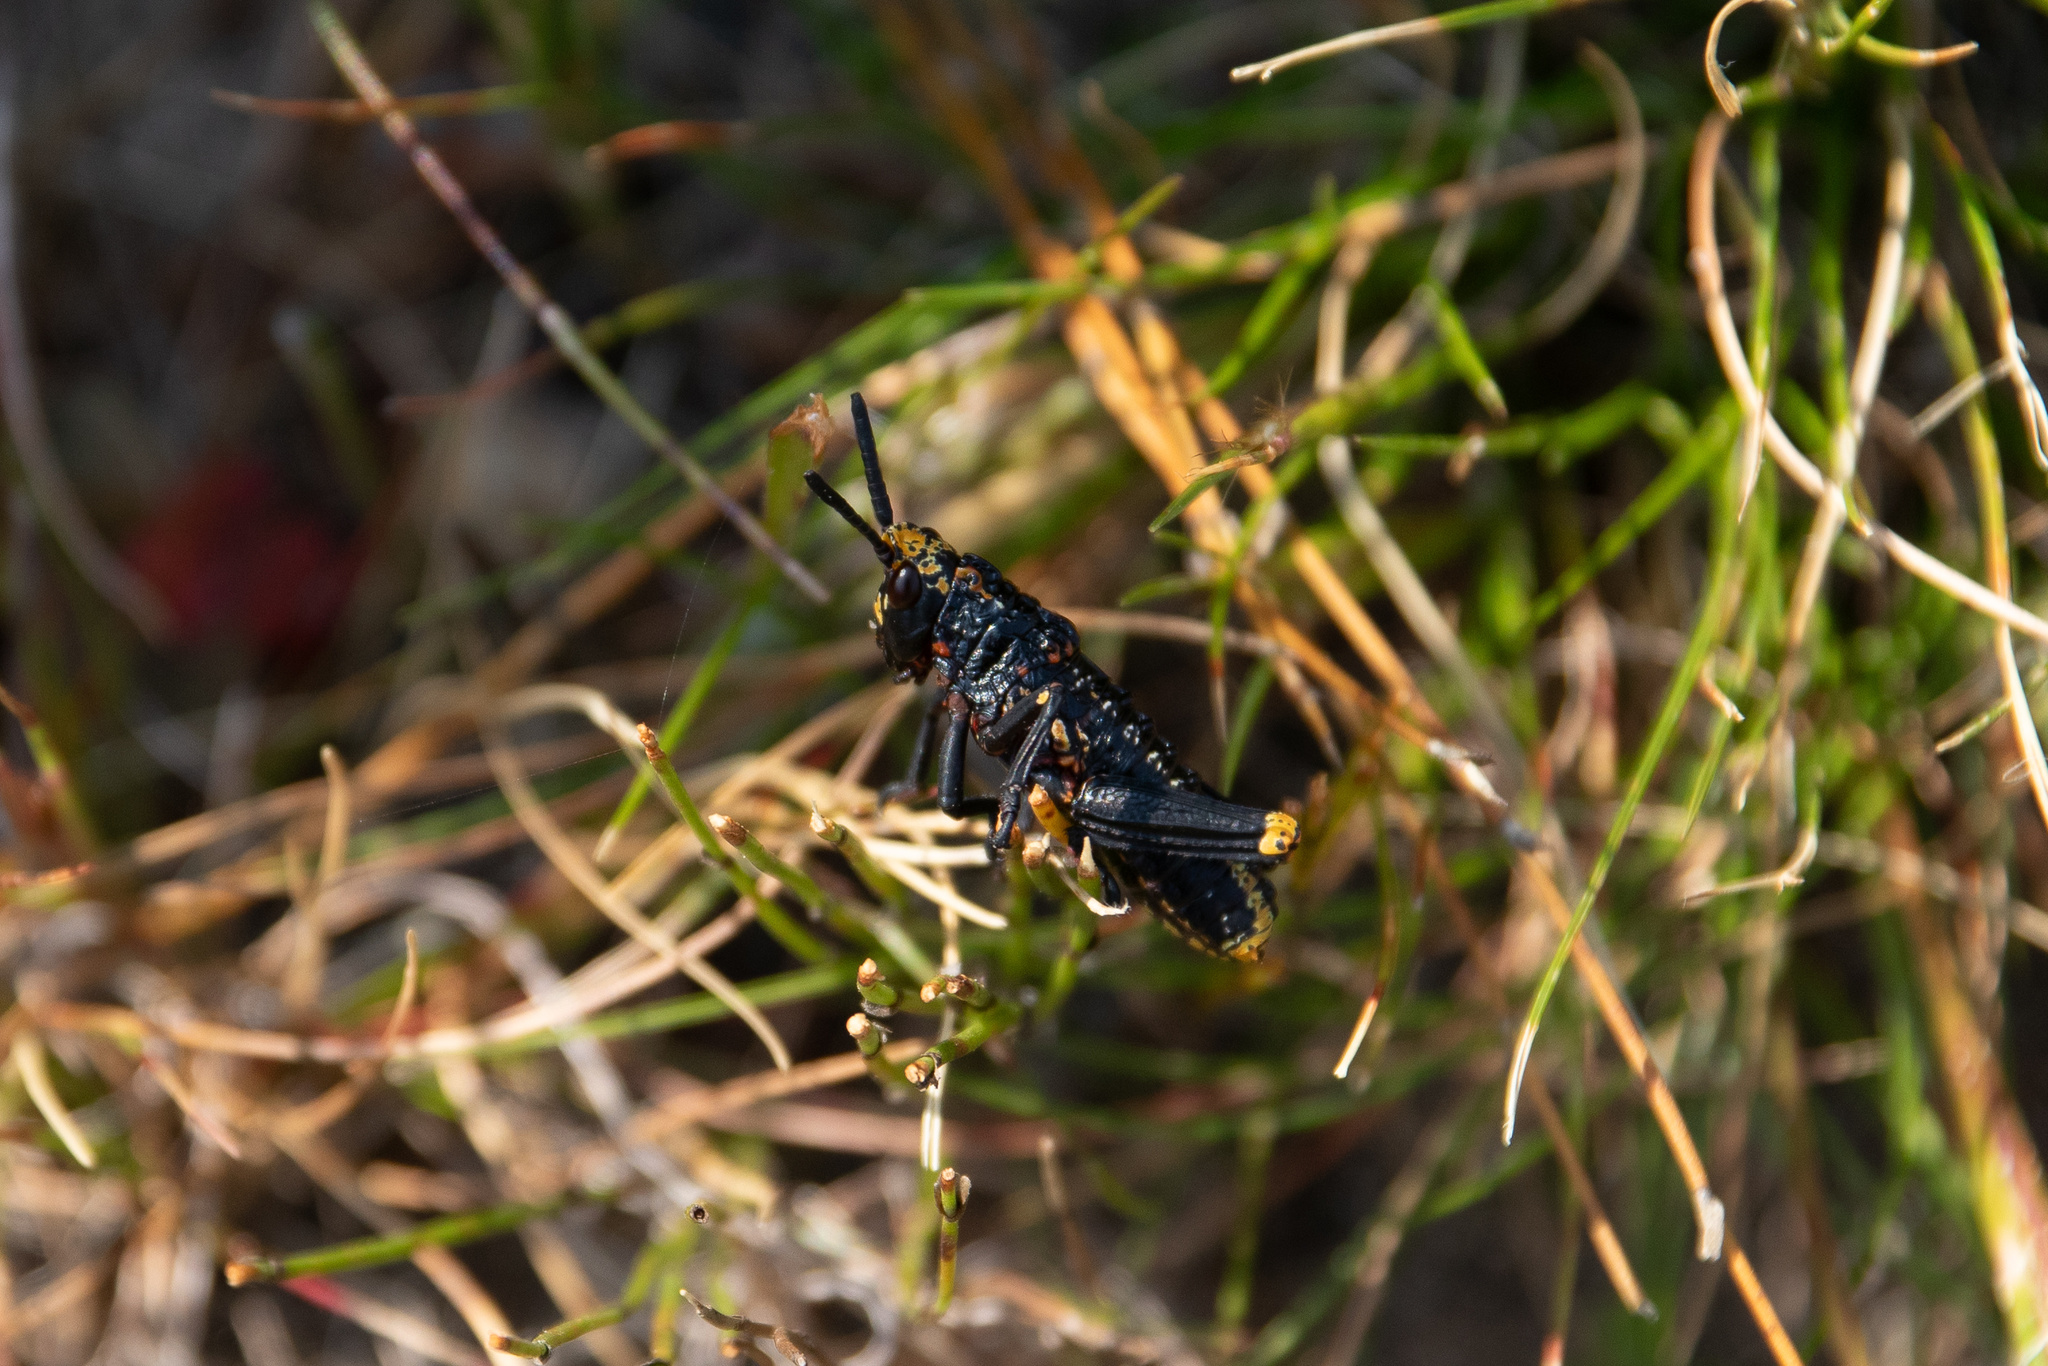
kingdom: Animalia
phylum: Arthropoda
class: Insecta
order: Orthoptera
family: Pyrgomorphidae
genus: Dictyophorus
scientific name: Dictyophorus spumans
